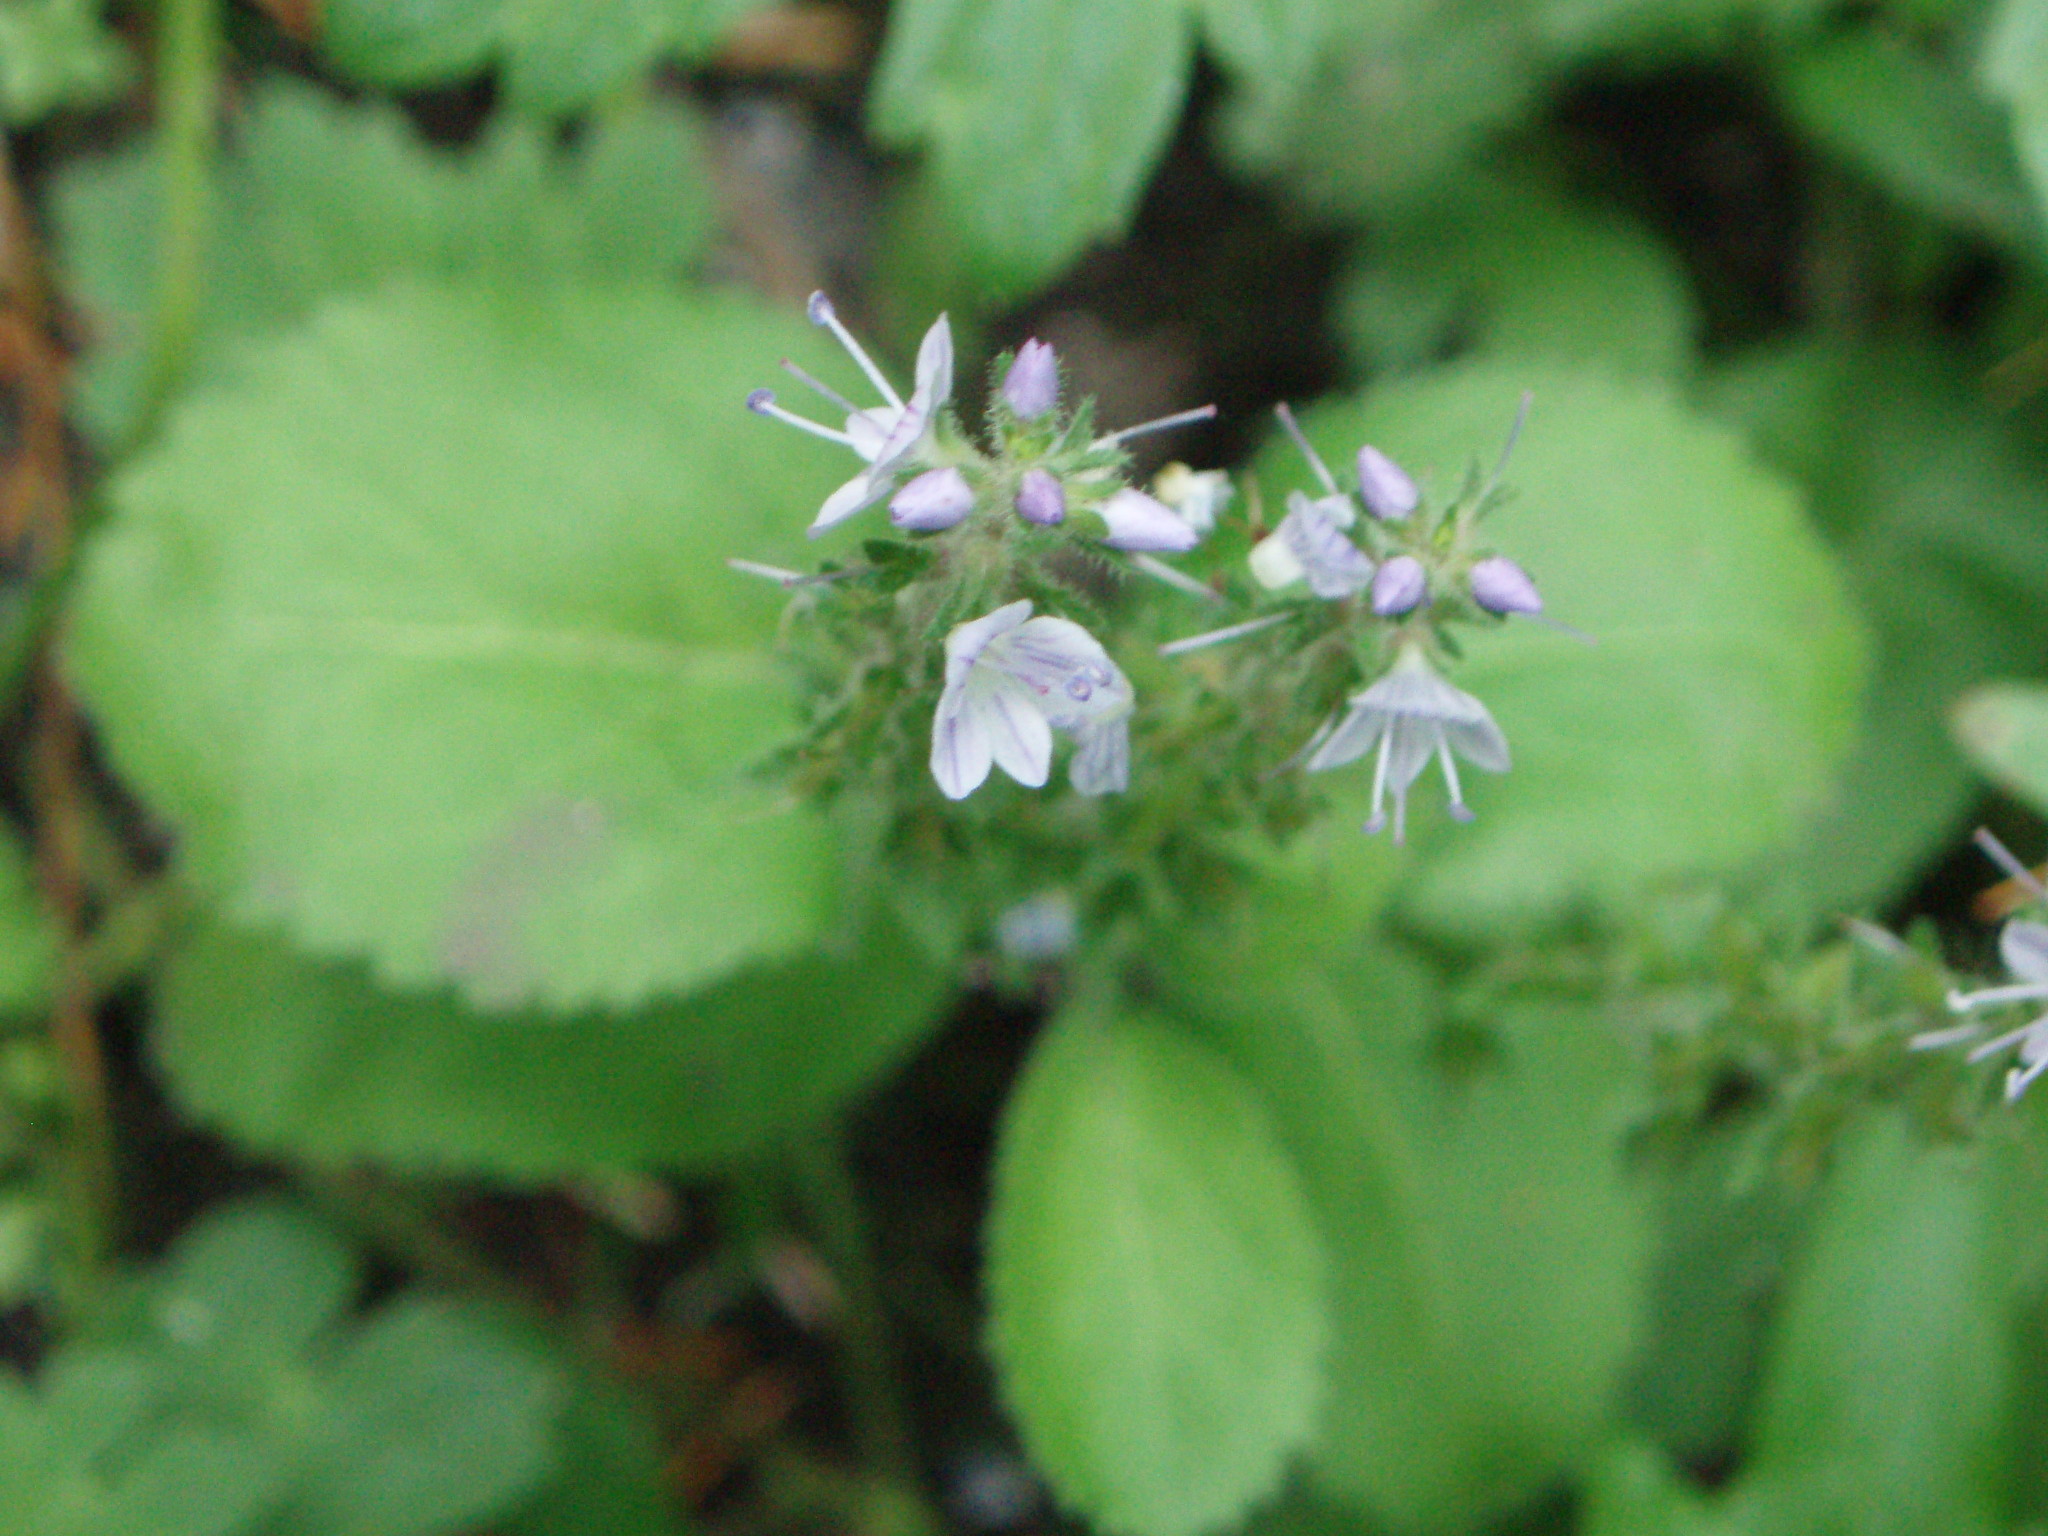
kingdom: Plantae
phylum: Tracheophyta
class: Magnoliopsida
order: Lamiales
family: Plantaginaceae
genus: Veronica
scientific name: Veronica officinalis
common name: Common speedwell
